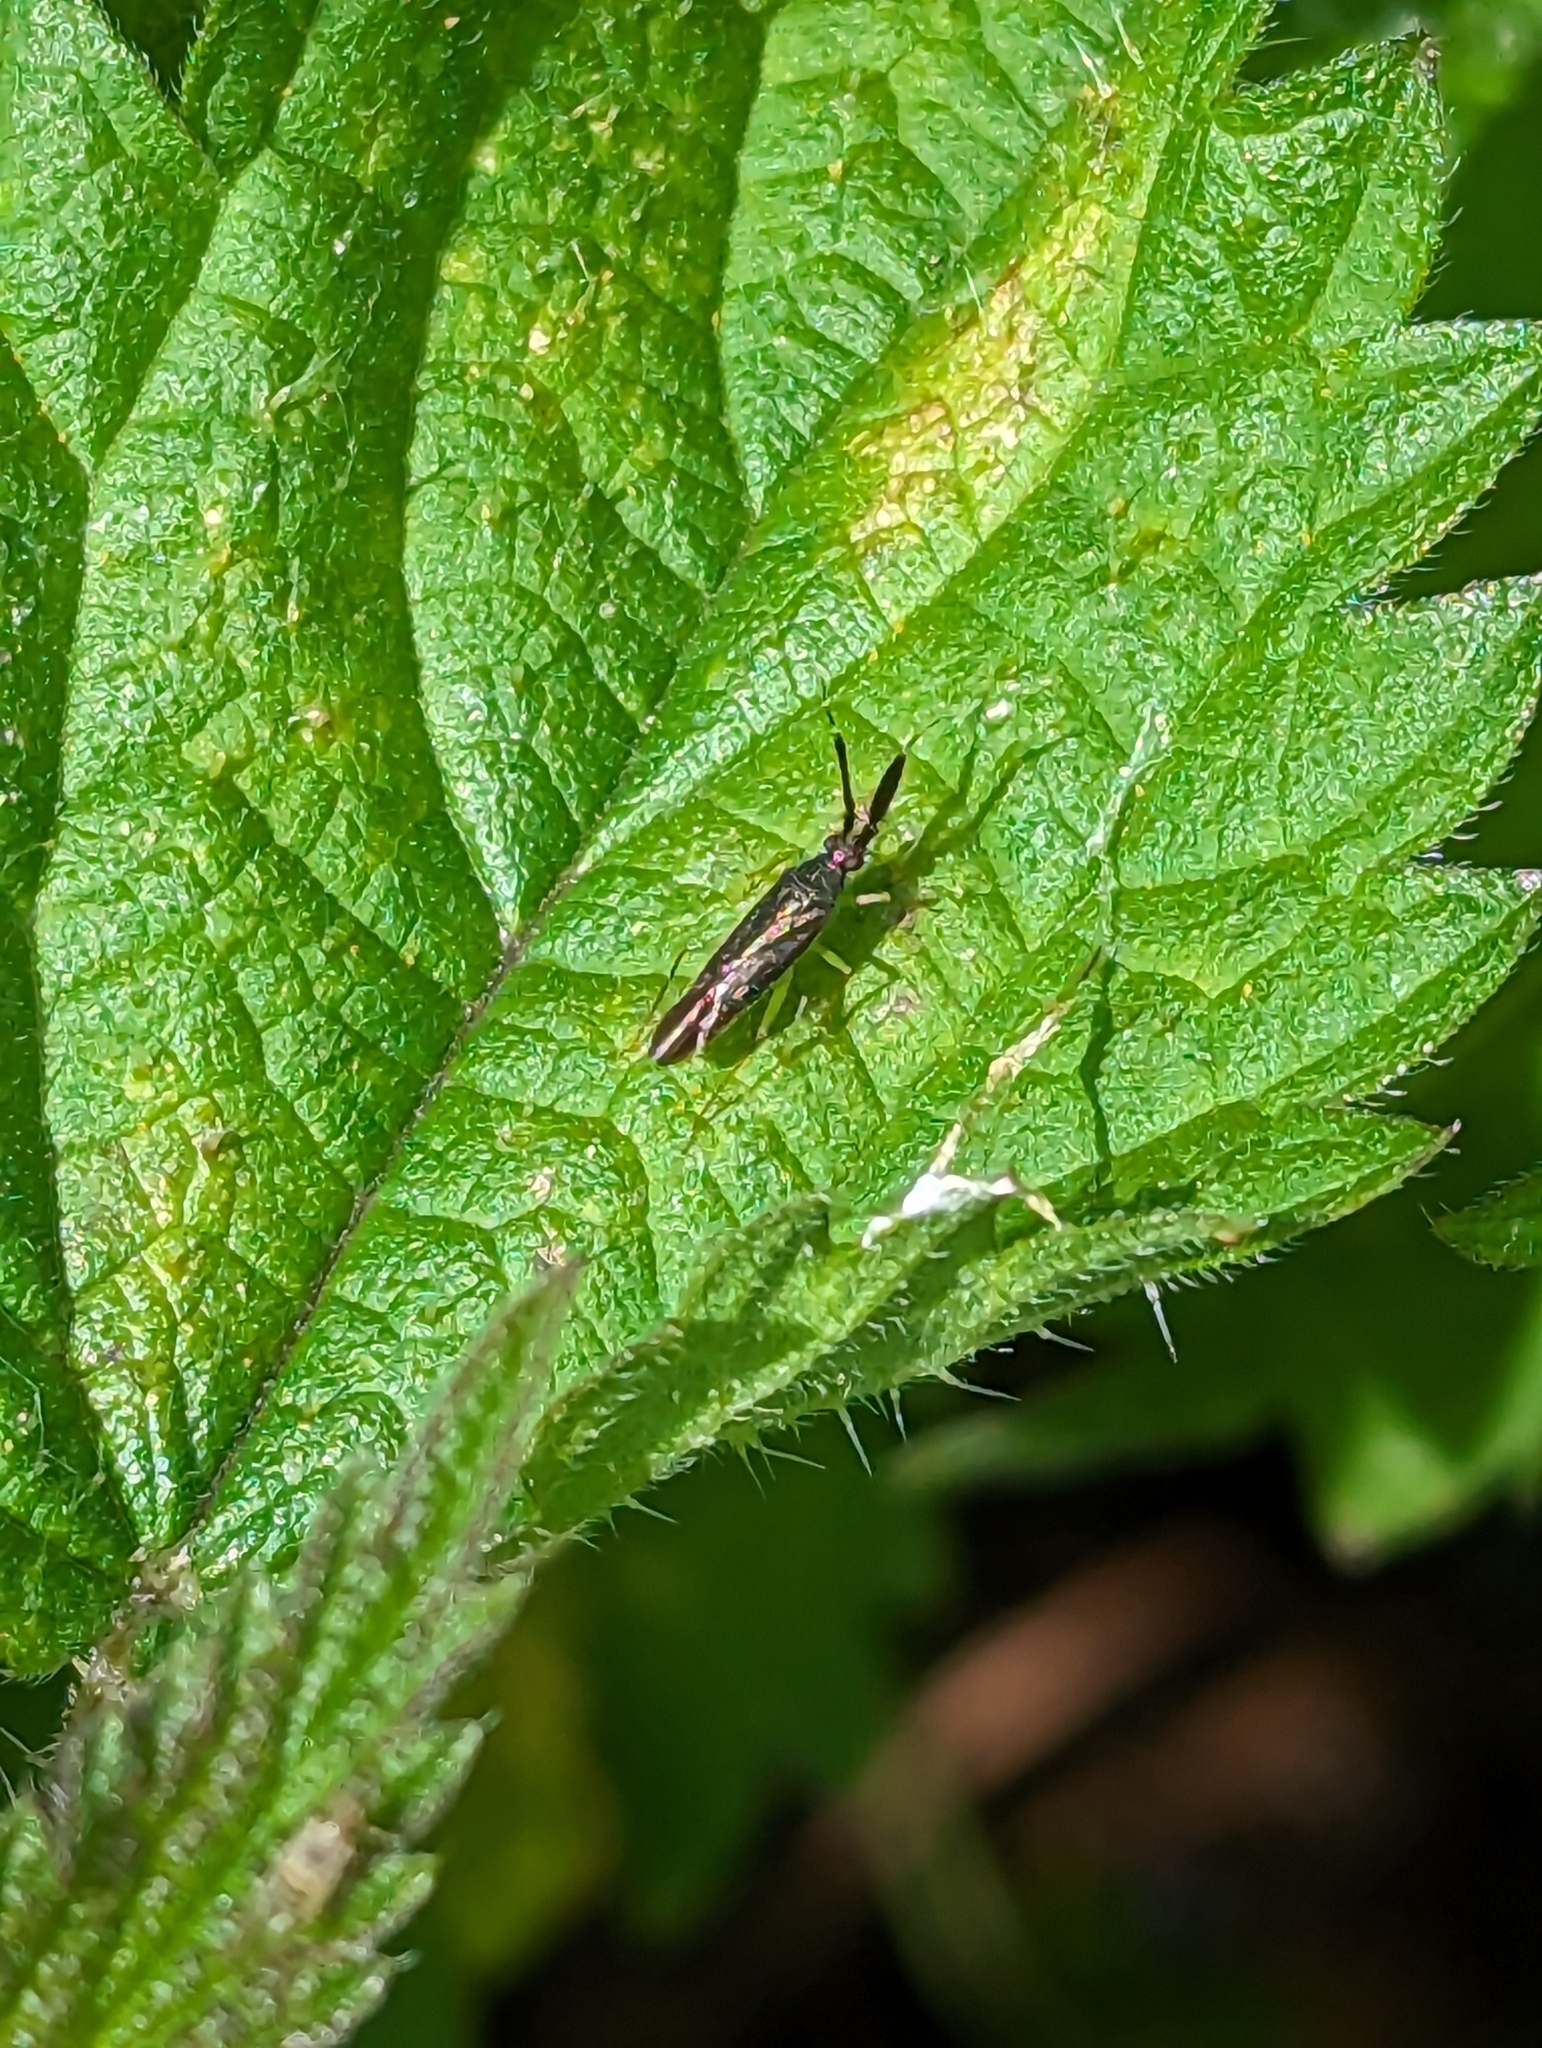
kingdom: Animalia
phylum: Arthropoda
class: Insecta
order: Hemiptera
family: Miridae
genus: Heterotoma
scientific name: Heterotoma planicornis
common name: Plant bug
